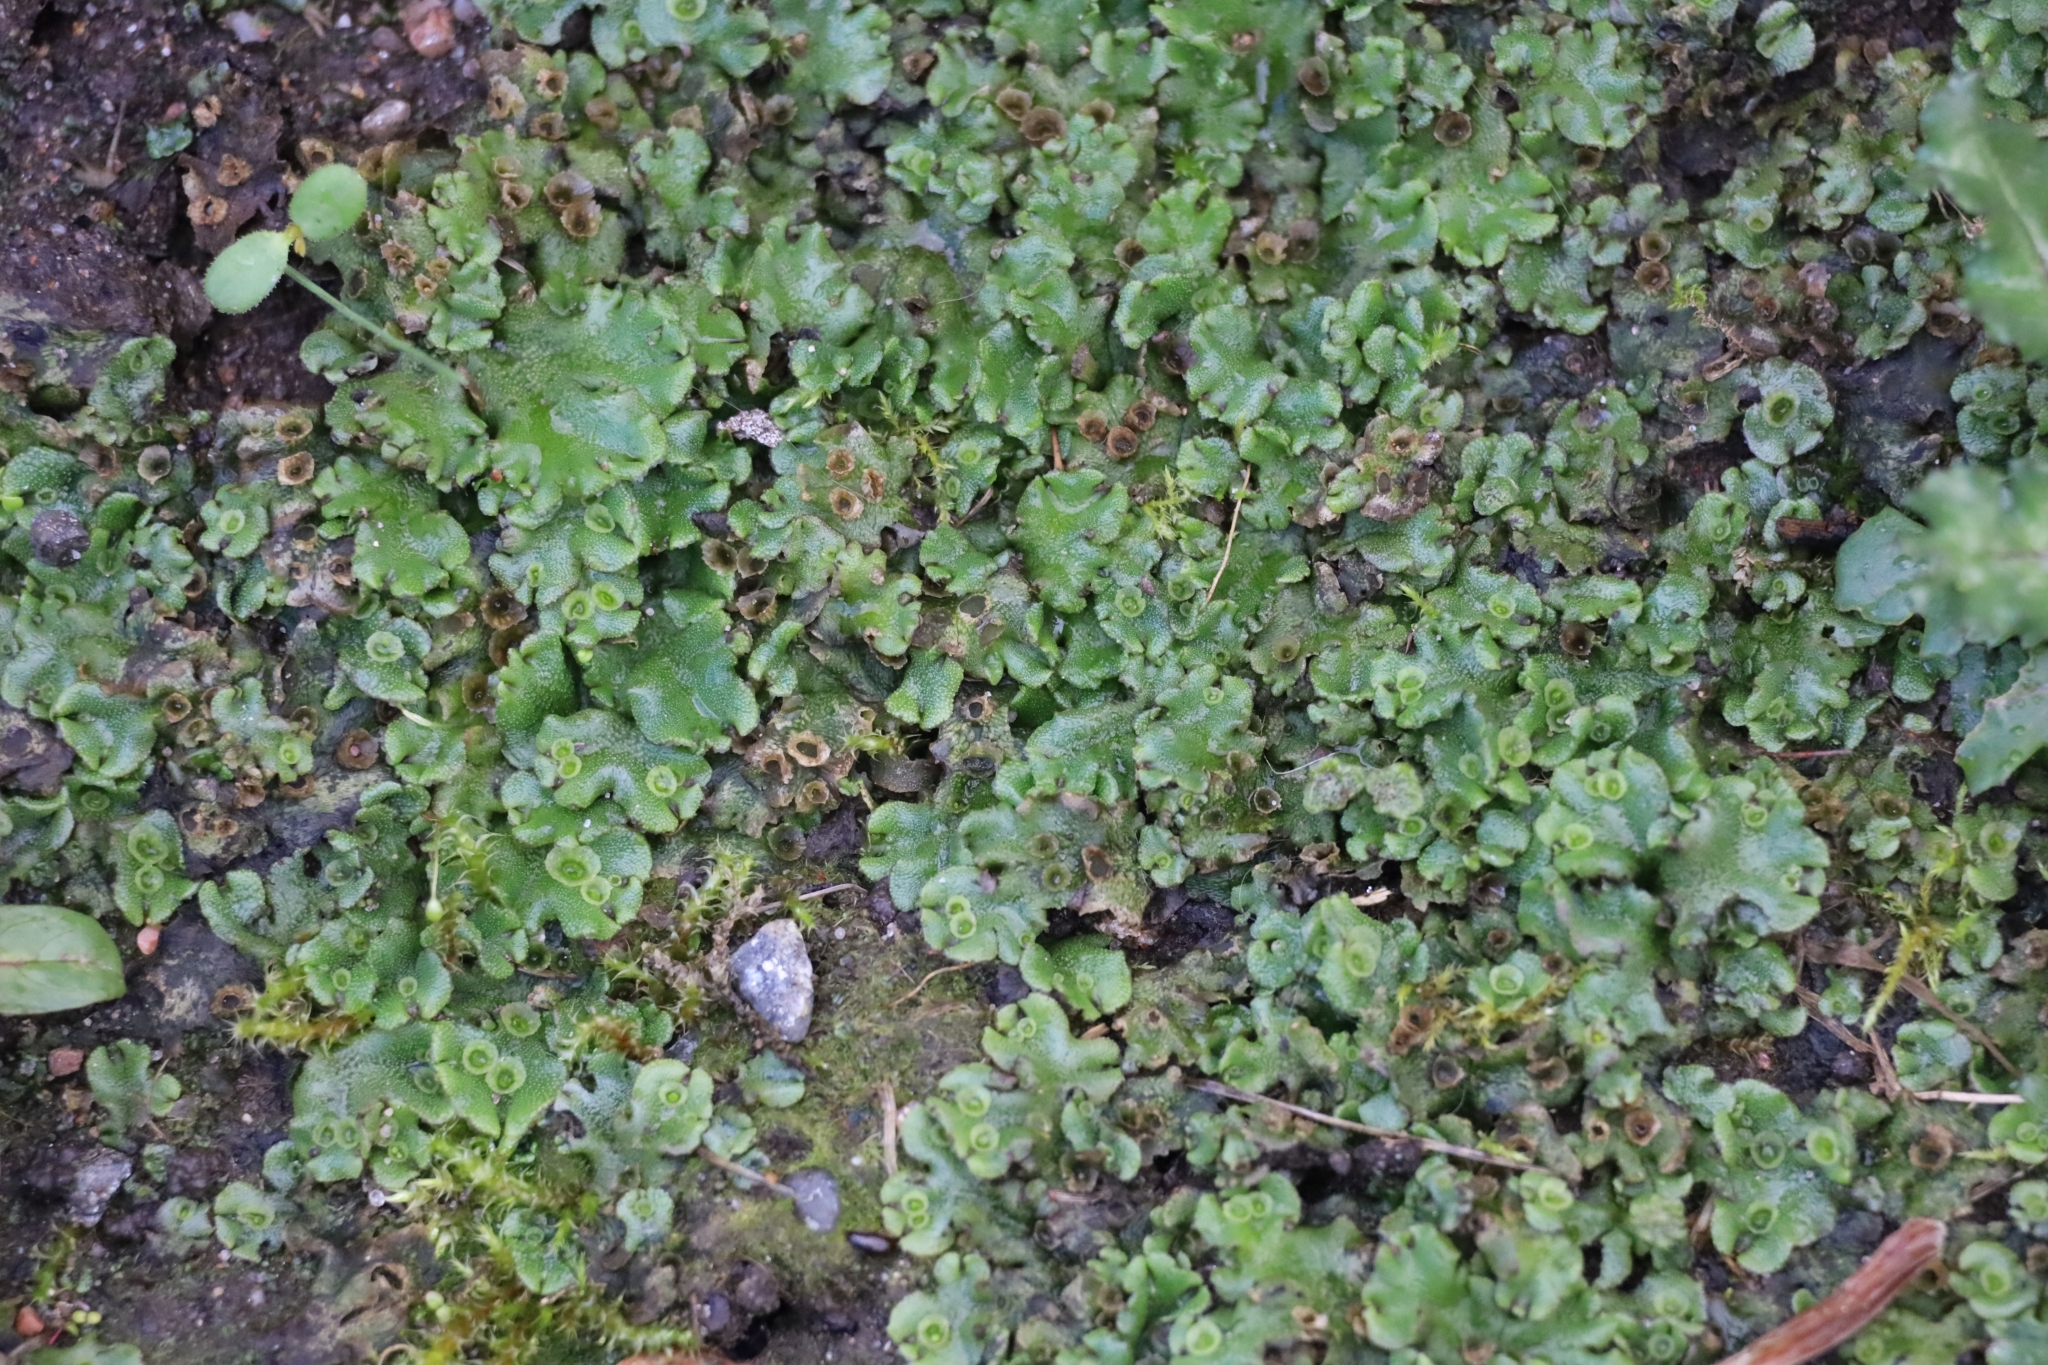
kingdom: Plantae
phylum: Marchantiophyta
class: Marchantiopsida
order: Marchantiales
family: Marchantiaceae
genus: Marchantia
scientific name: Marchantia polymorpha
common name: Common liverwort
